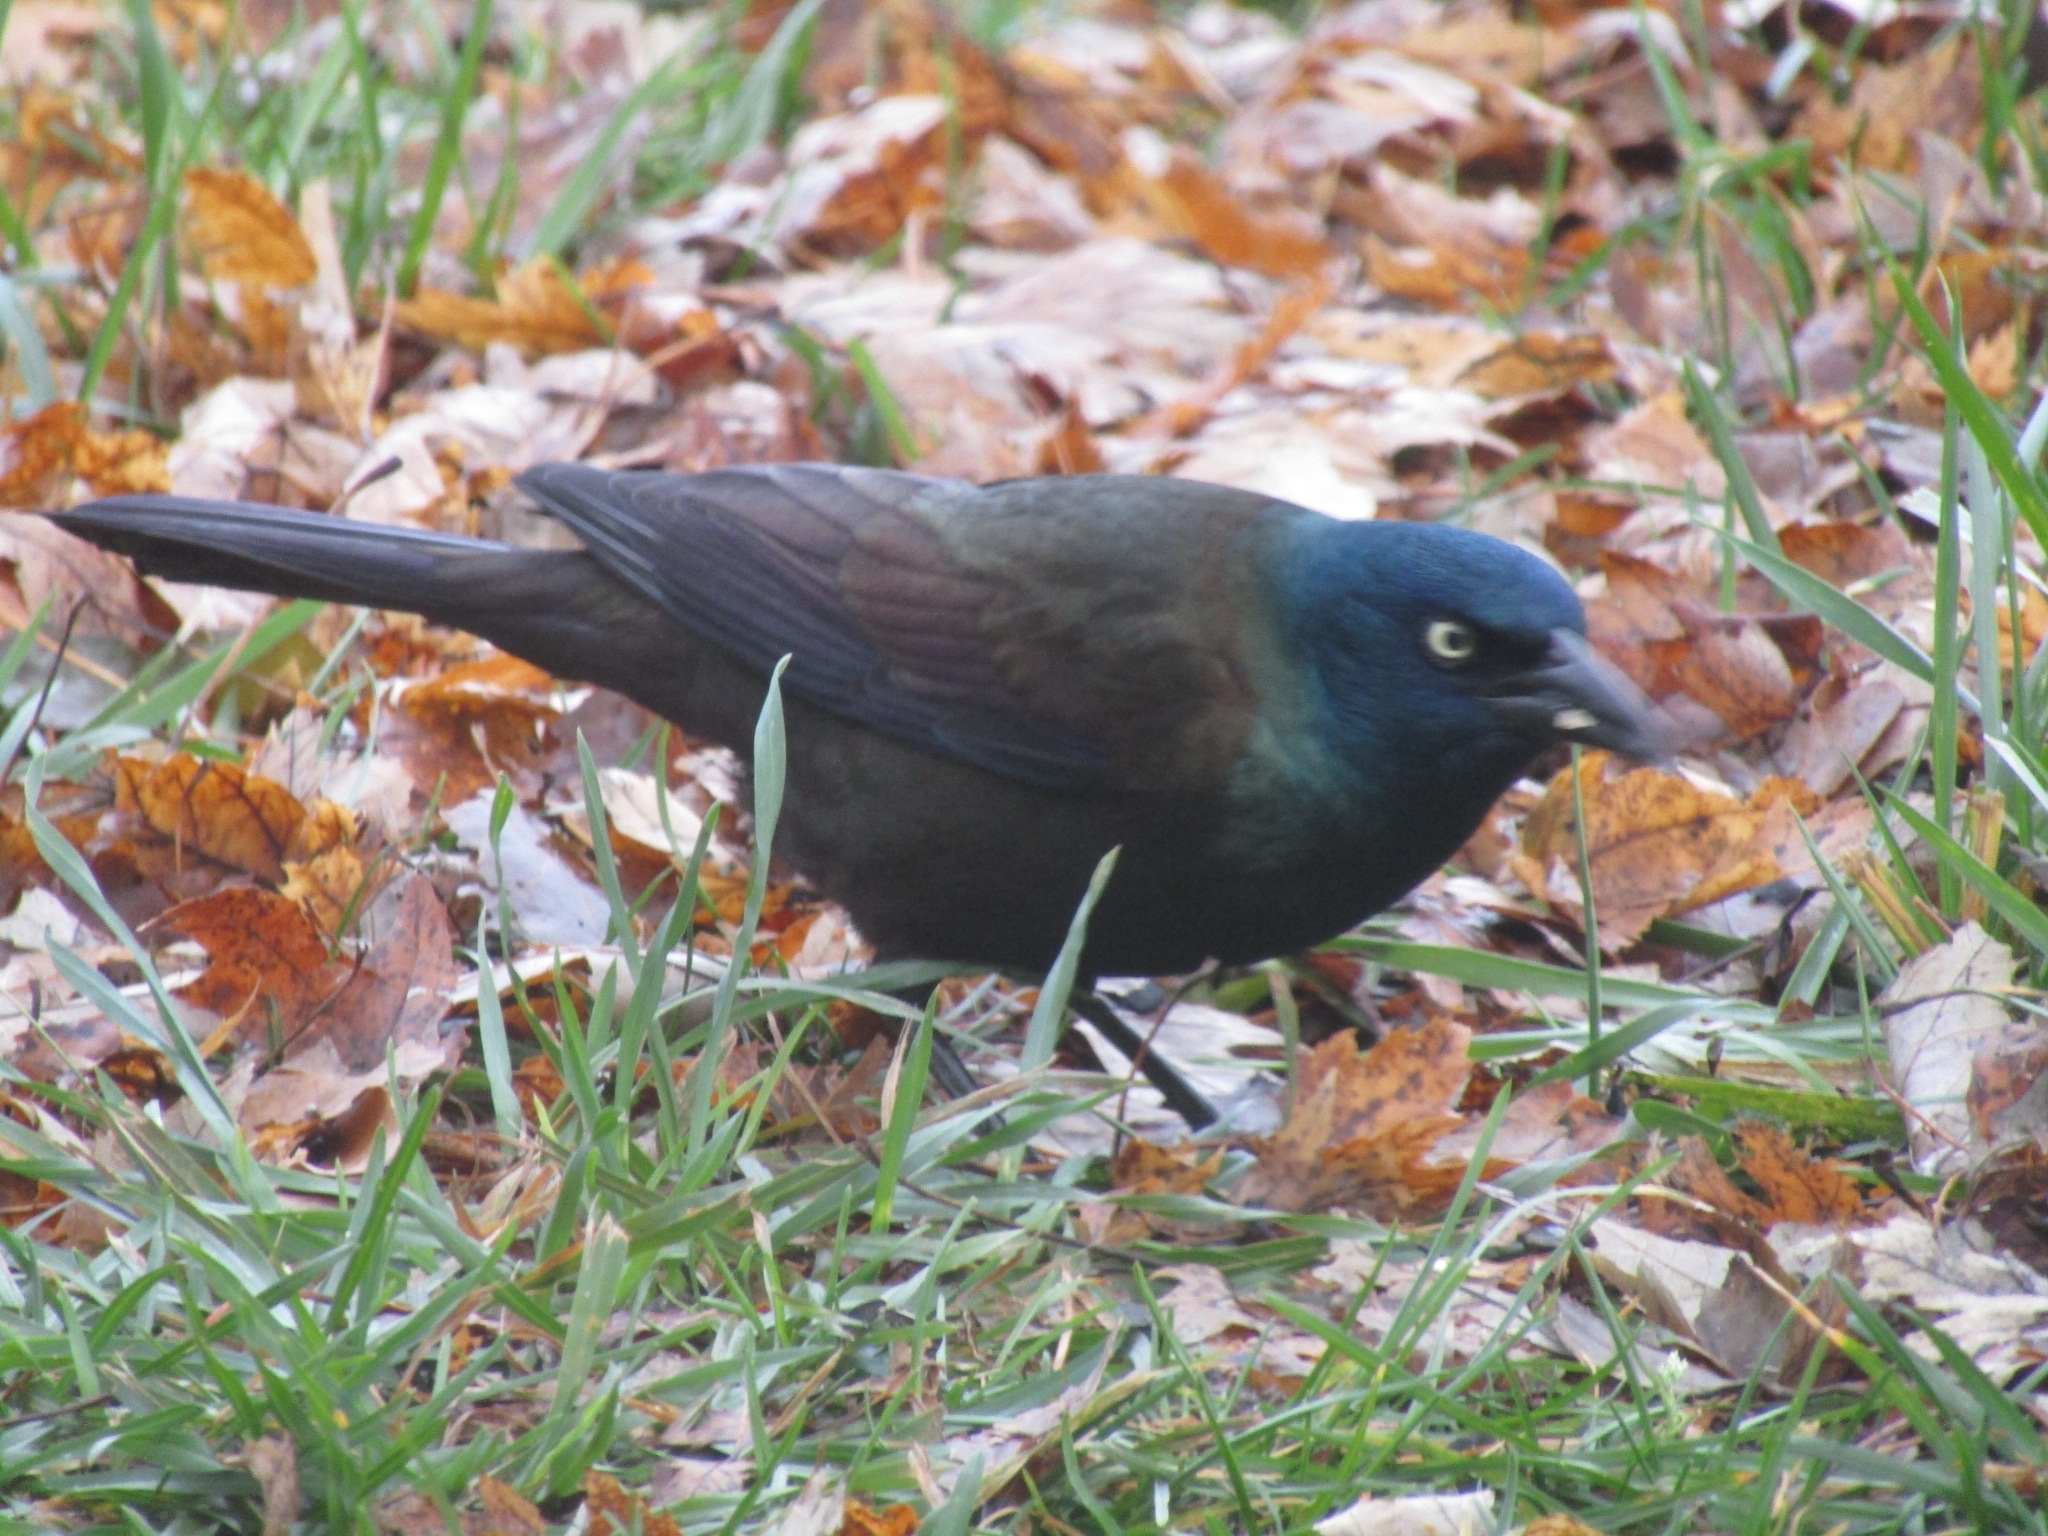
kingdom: Animalia
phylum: Chordata
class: Aves
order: Passeriformes
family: Icteridae
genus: Quiscalus
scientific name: Quiscalus quiscula
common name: Common grackle
